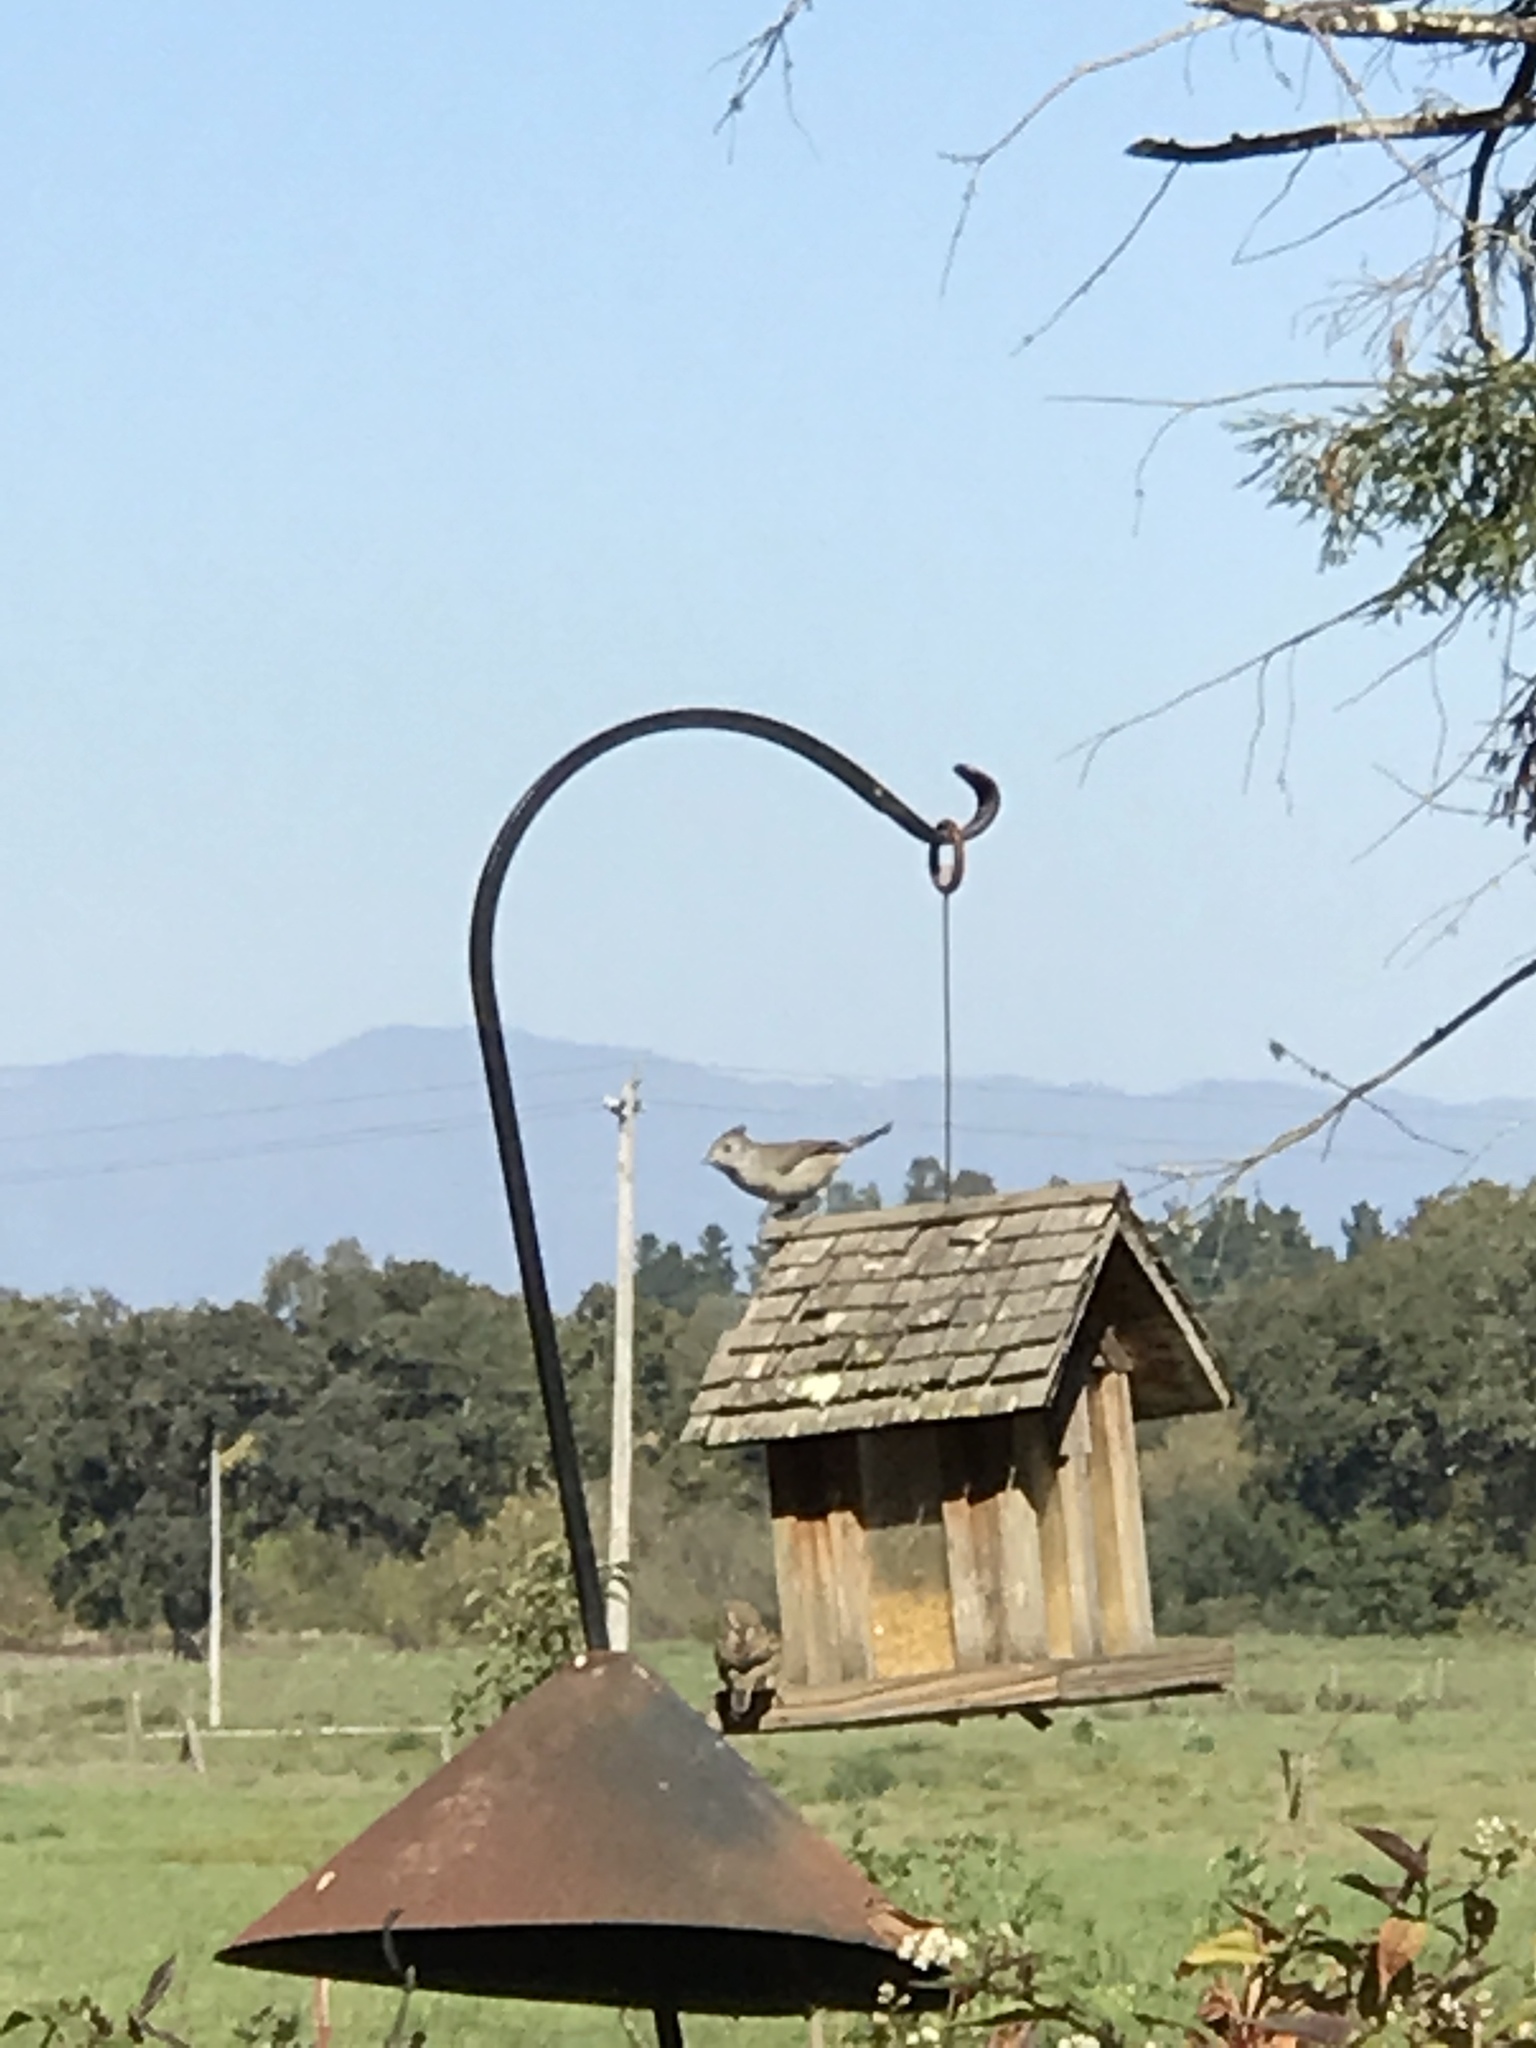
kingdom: Animalia
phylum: Chordata
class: Aves
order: Passeriformes
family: Paridae
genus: Baeolophus
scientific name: Baeolophus inornatus
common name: Oak titmouse
